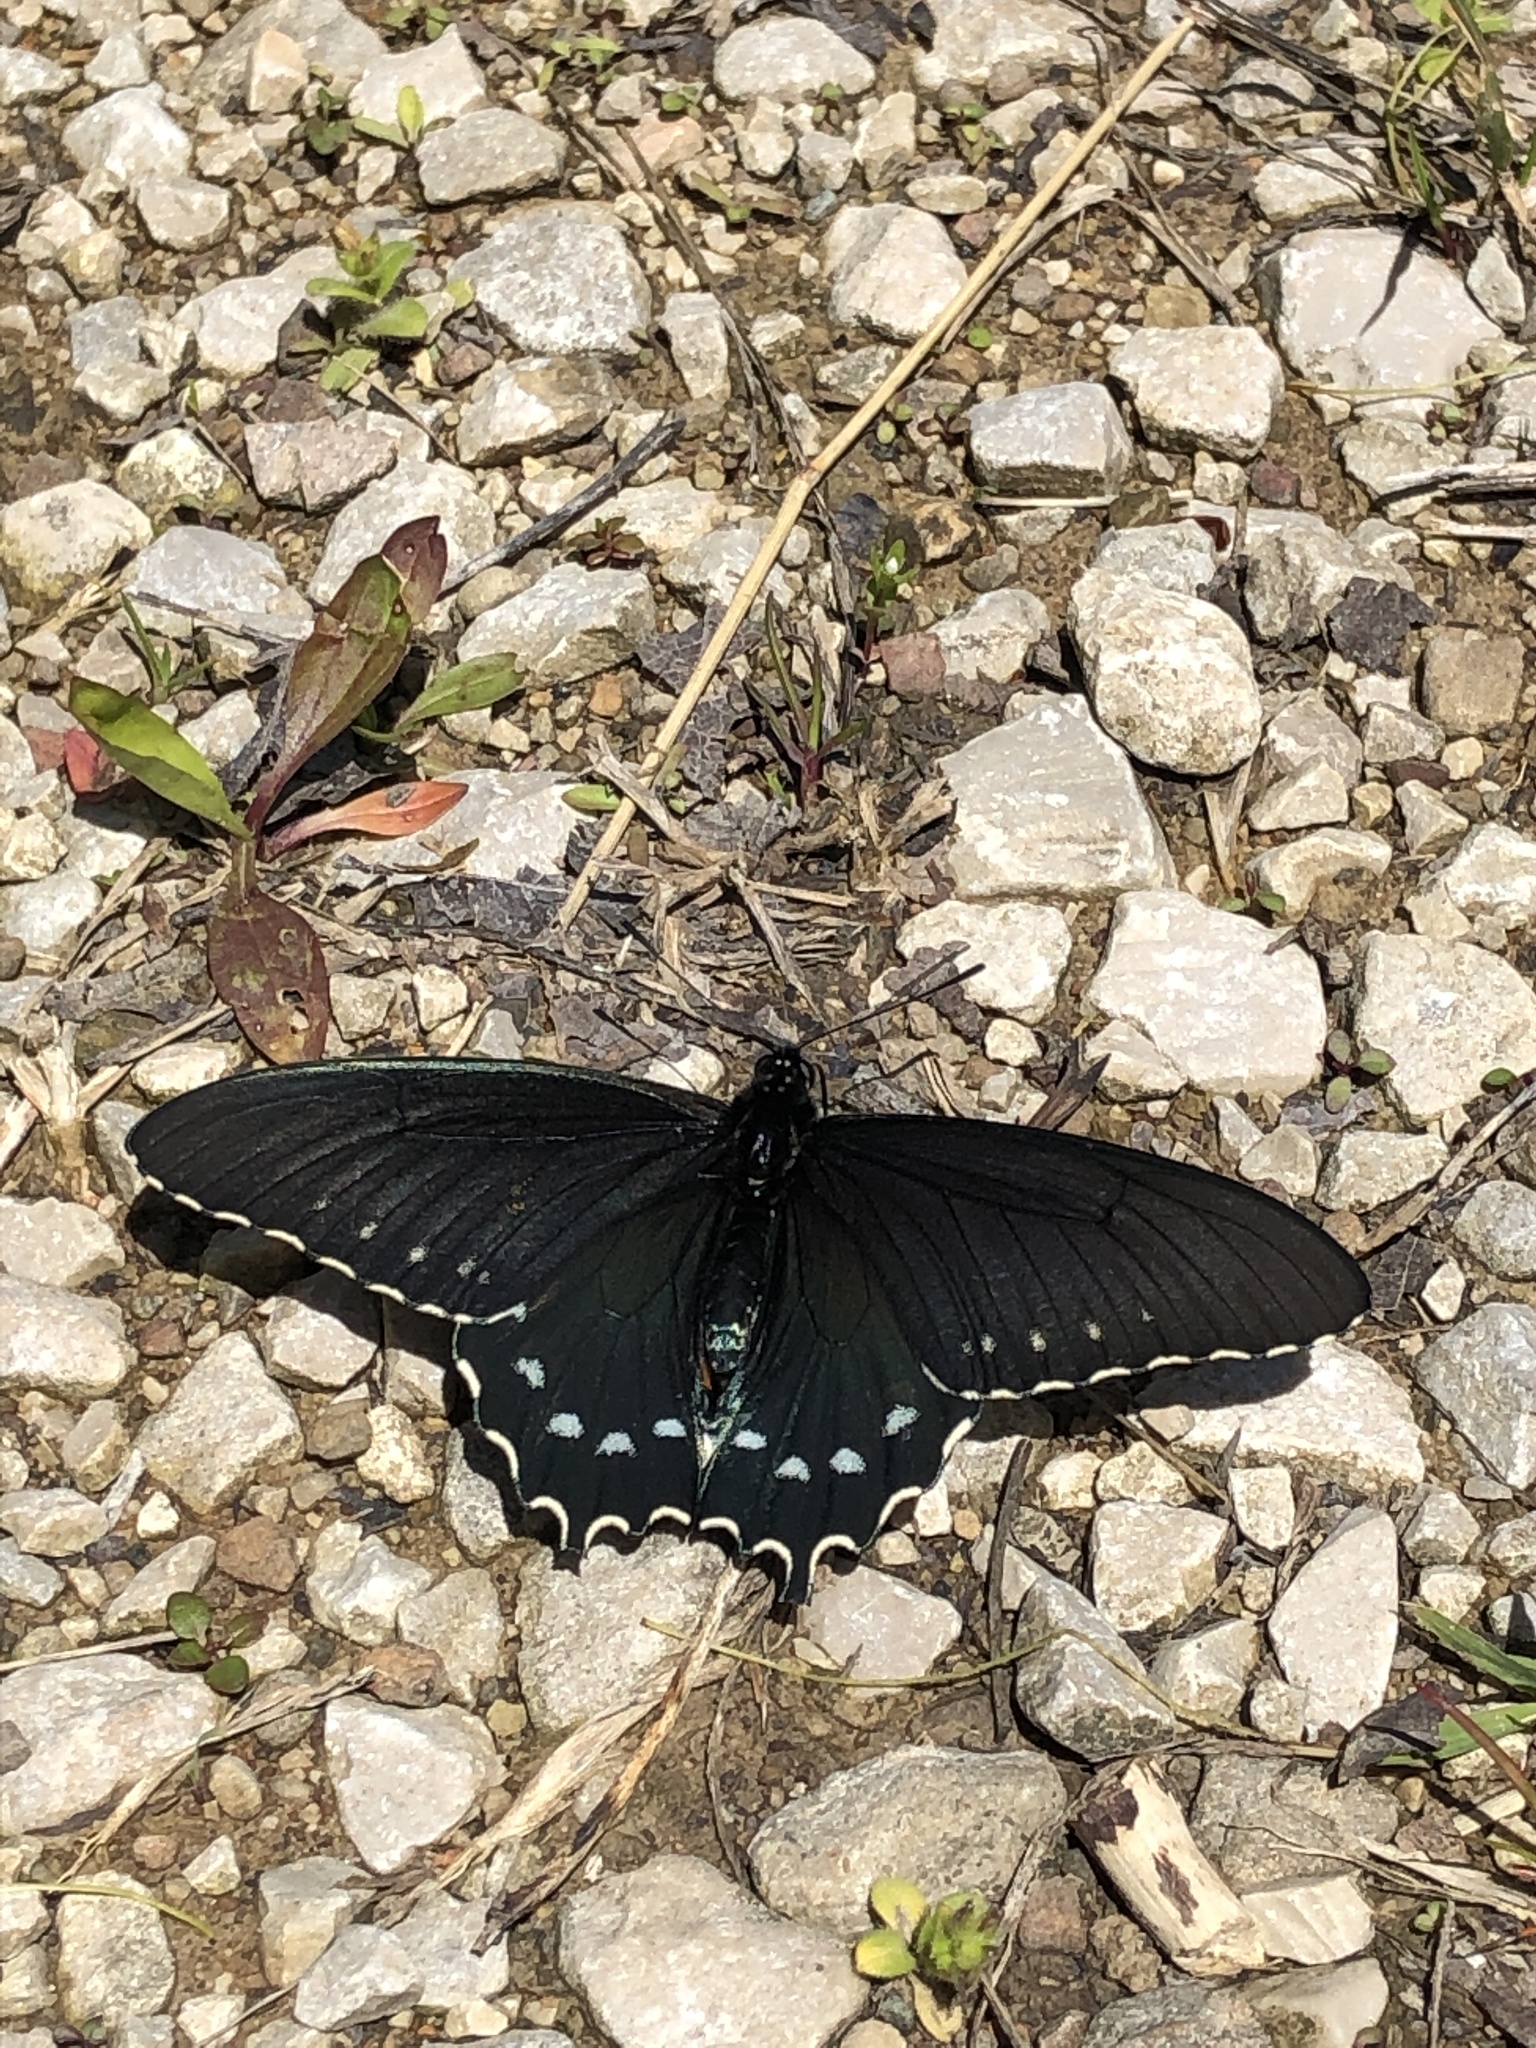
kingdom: Animalia
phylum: Arthropoda
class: Insecta
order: Lepidoptera
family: Papilionidae
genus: Battus
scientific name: Battus philenor
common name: Pipevine swallowtail
